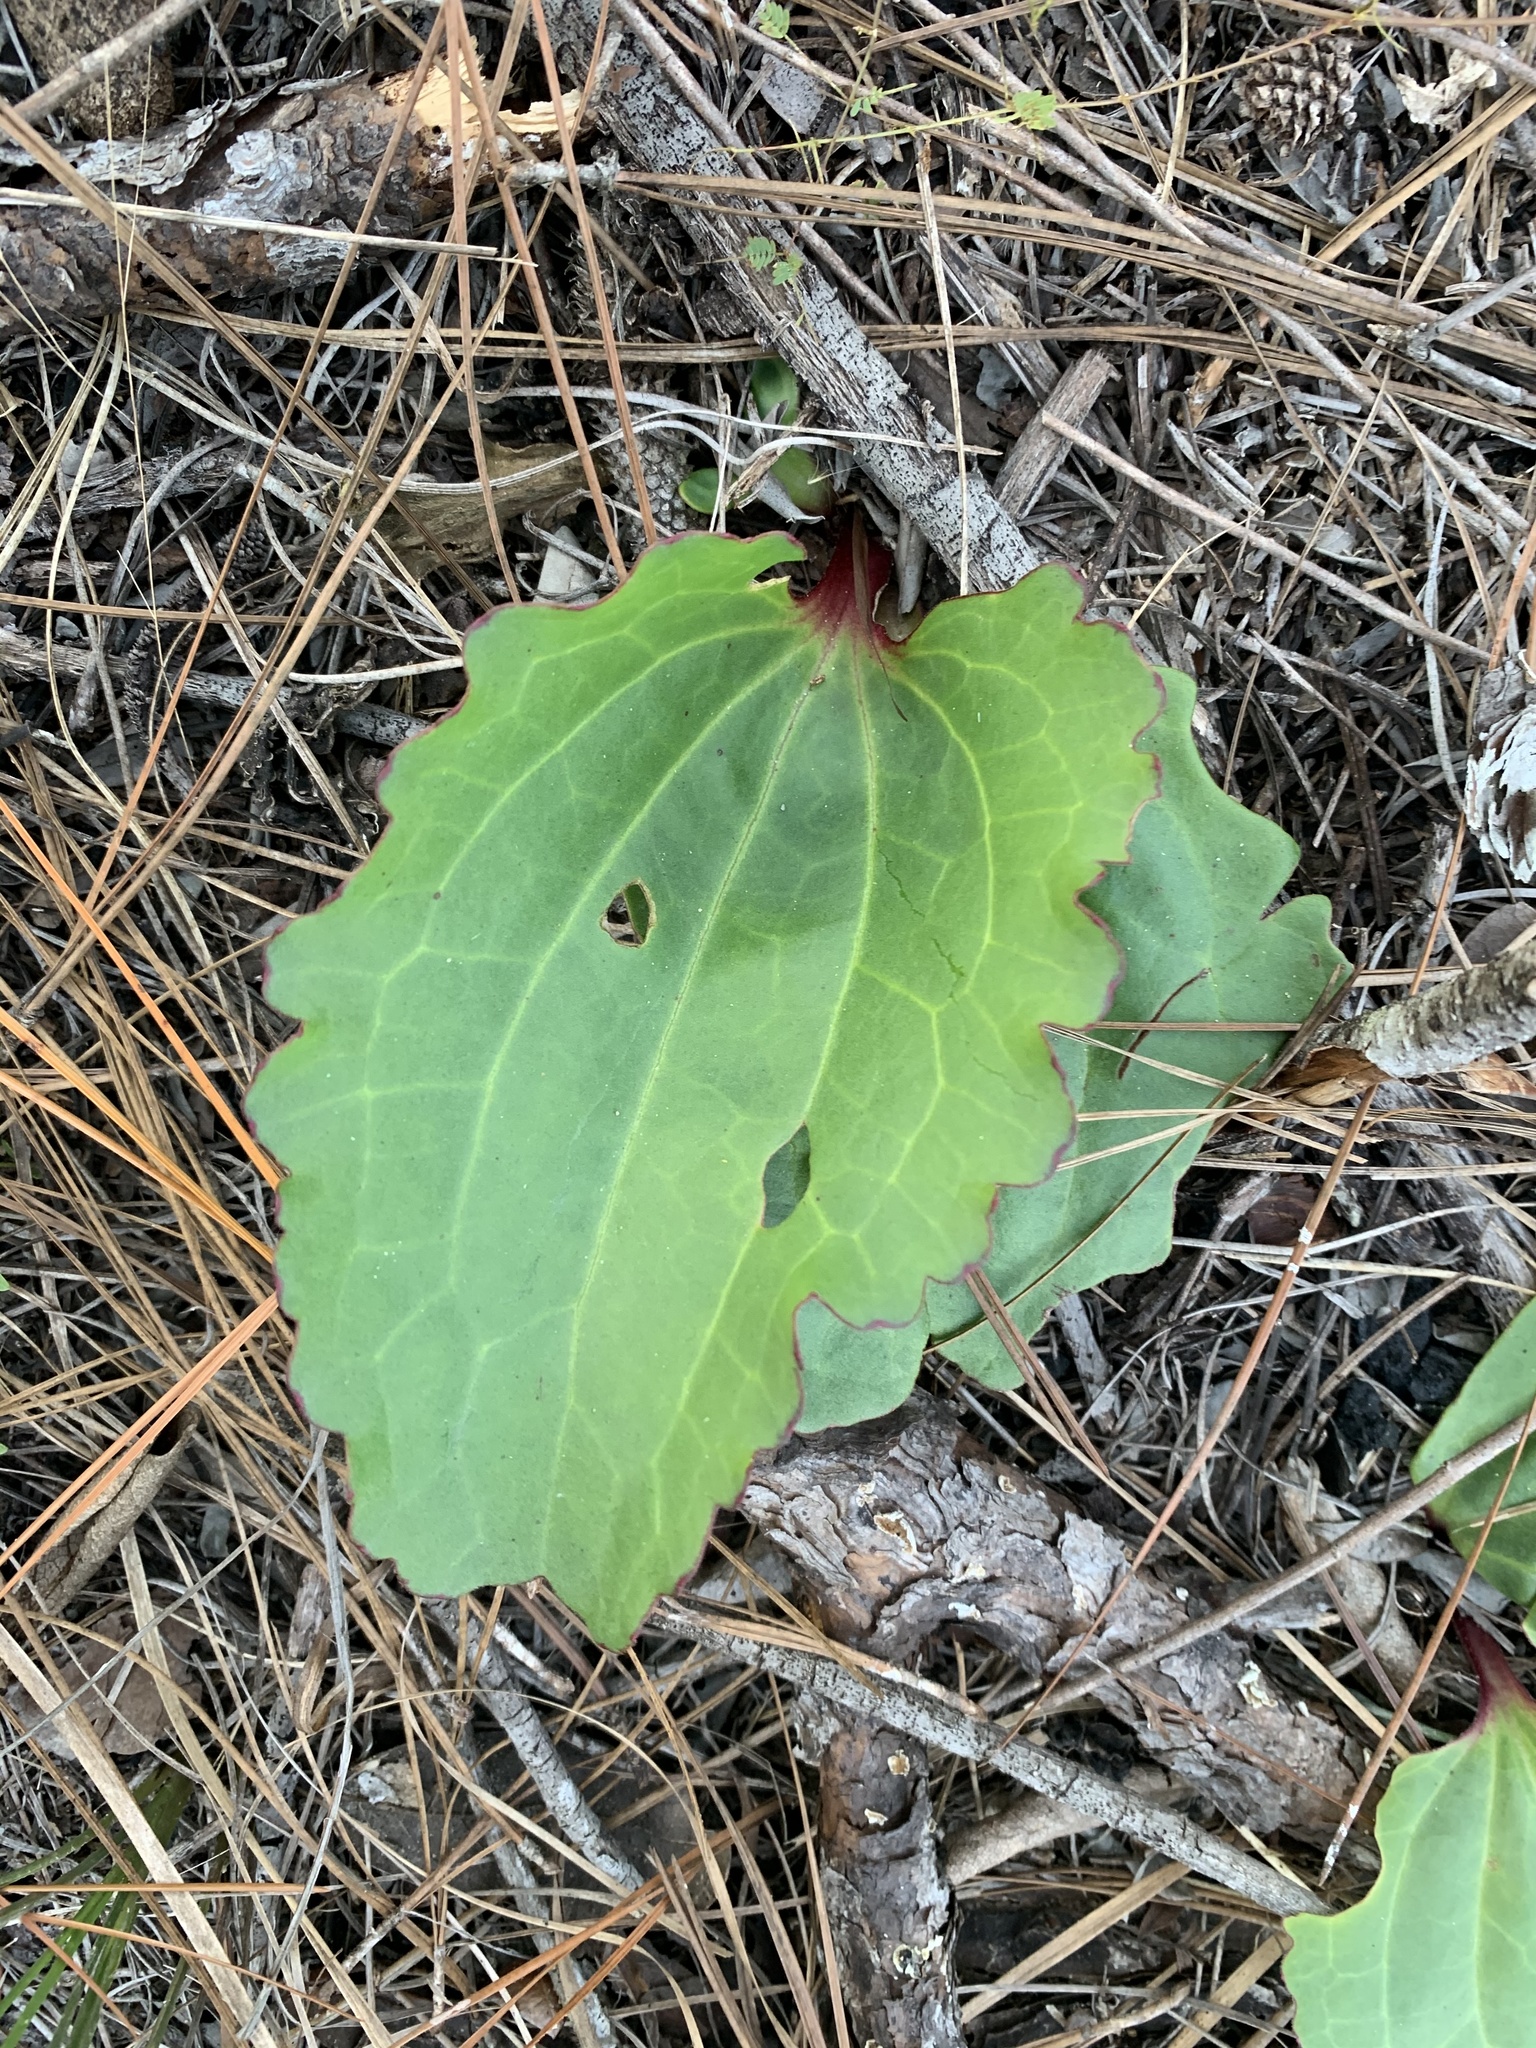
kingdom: Plantae
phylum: Tracheophyta
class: Magnoliopsida
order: Asterales
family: Asteraceae
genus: Arnoglossum
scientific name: Arnoglossum floridanum
